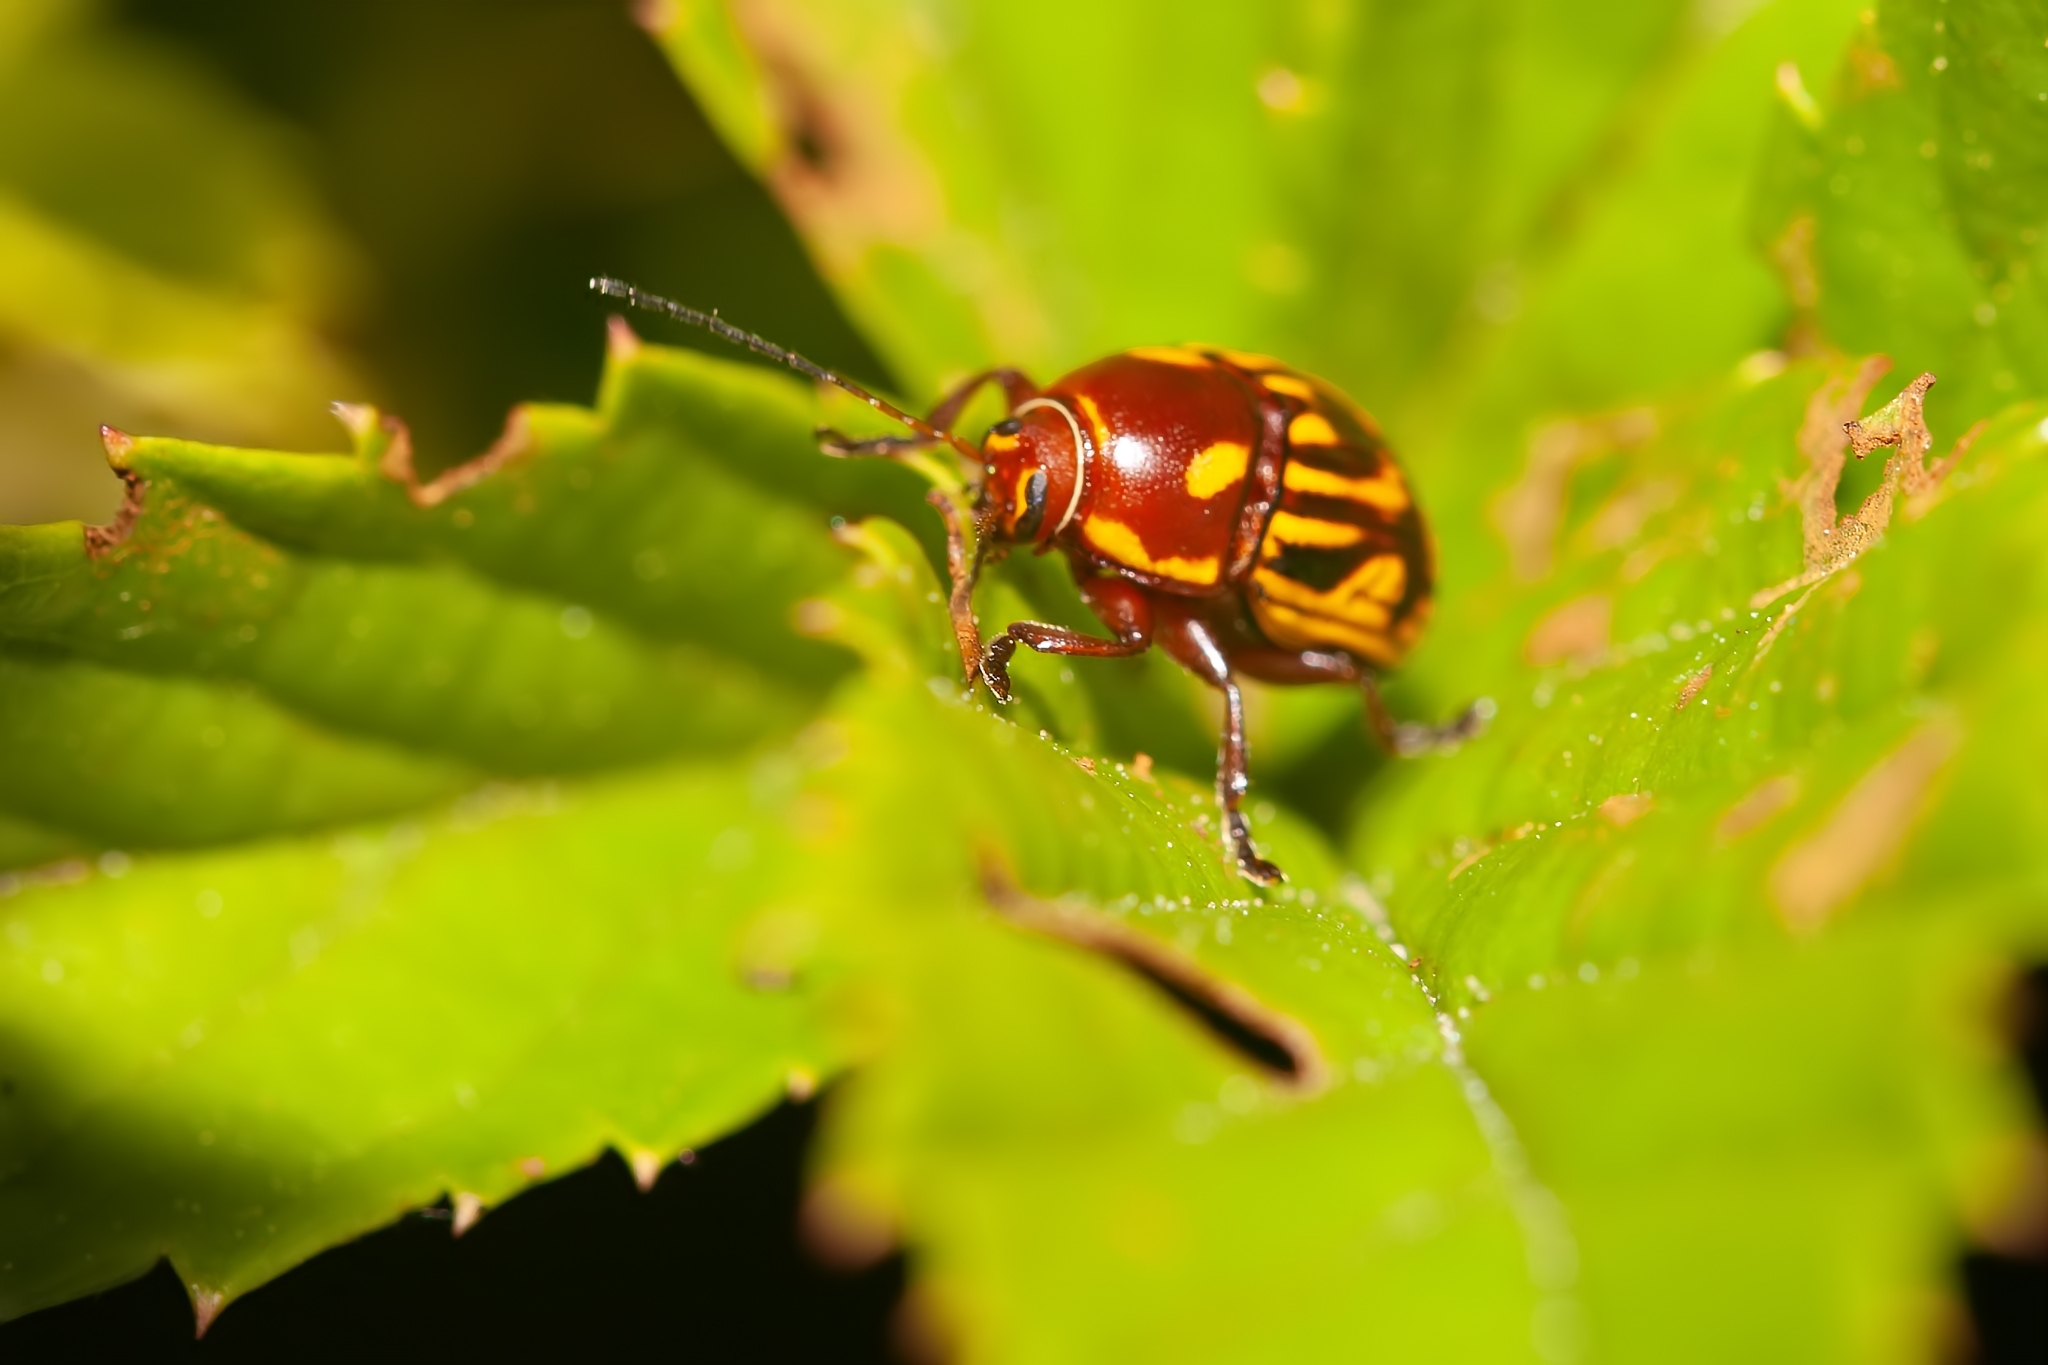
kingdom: Animalia
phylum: Arthropoda
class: Insecta
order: Coleoptera
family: Chrysomelidae
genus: Bassareus
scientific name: Bassareus brunnipes
